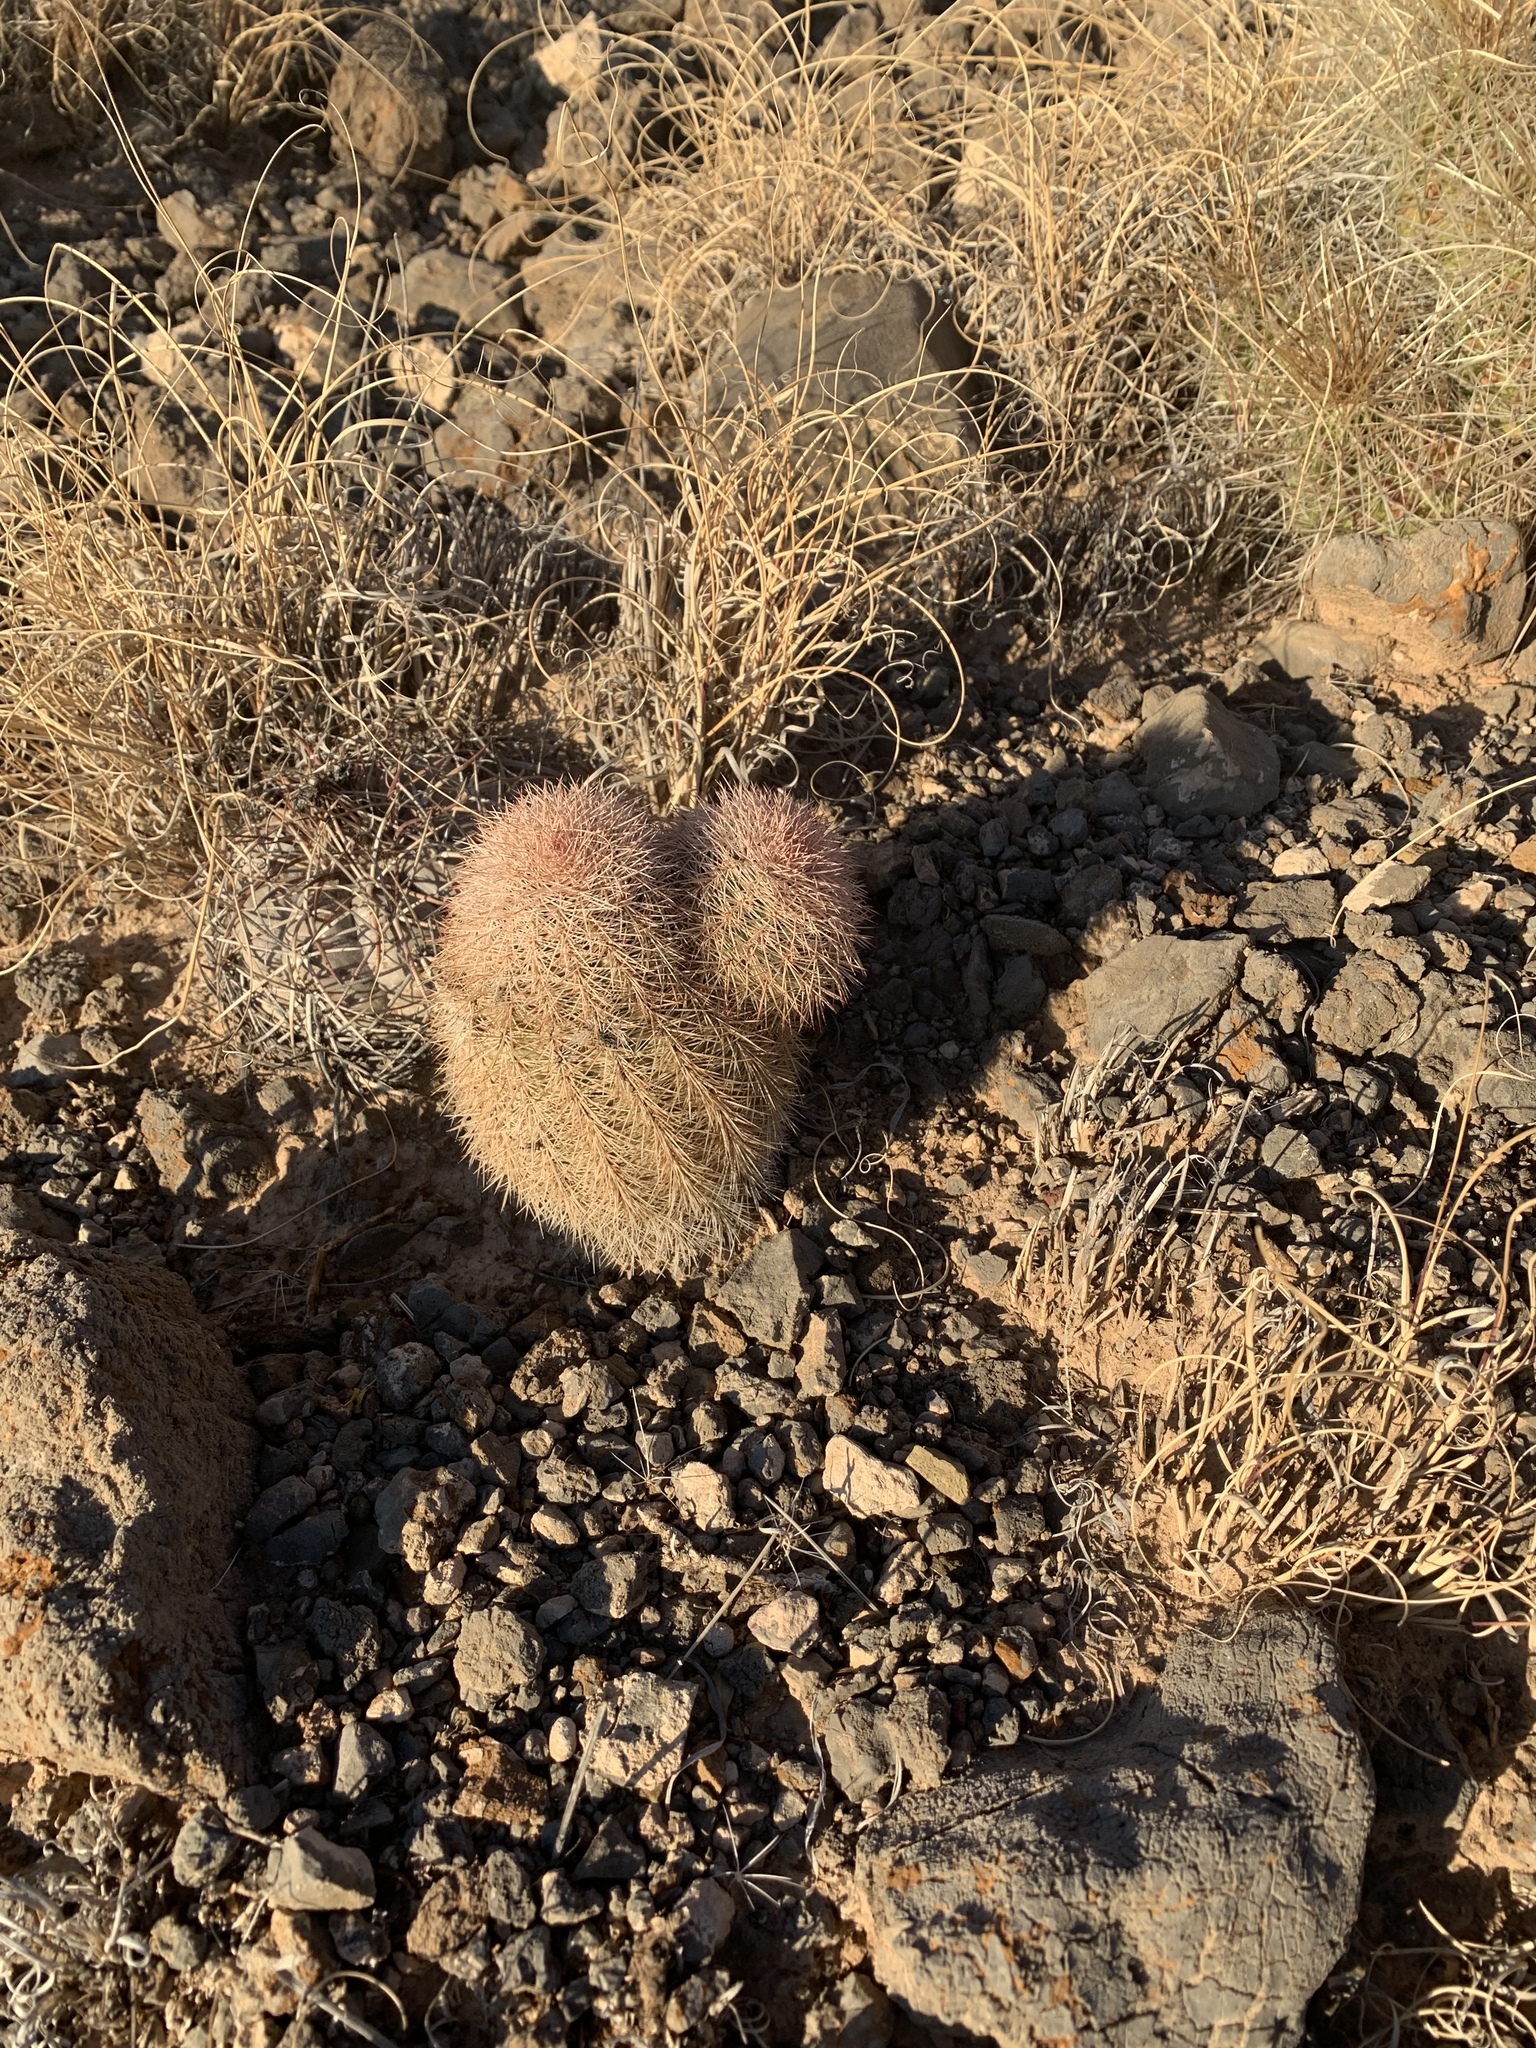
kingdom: Plantae
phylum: Tracheophyta
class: Magnoliopsida
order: Caryophyllales
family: Cactaceae
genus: Echinocereus
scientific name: Echinocereus dasyacanthus
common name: Spiny hedgehog cactus
